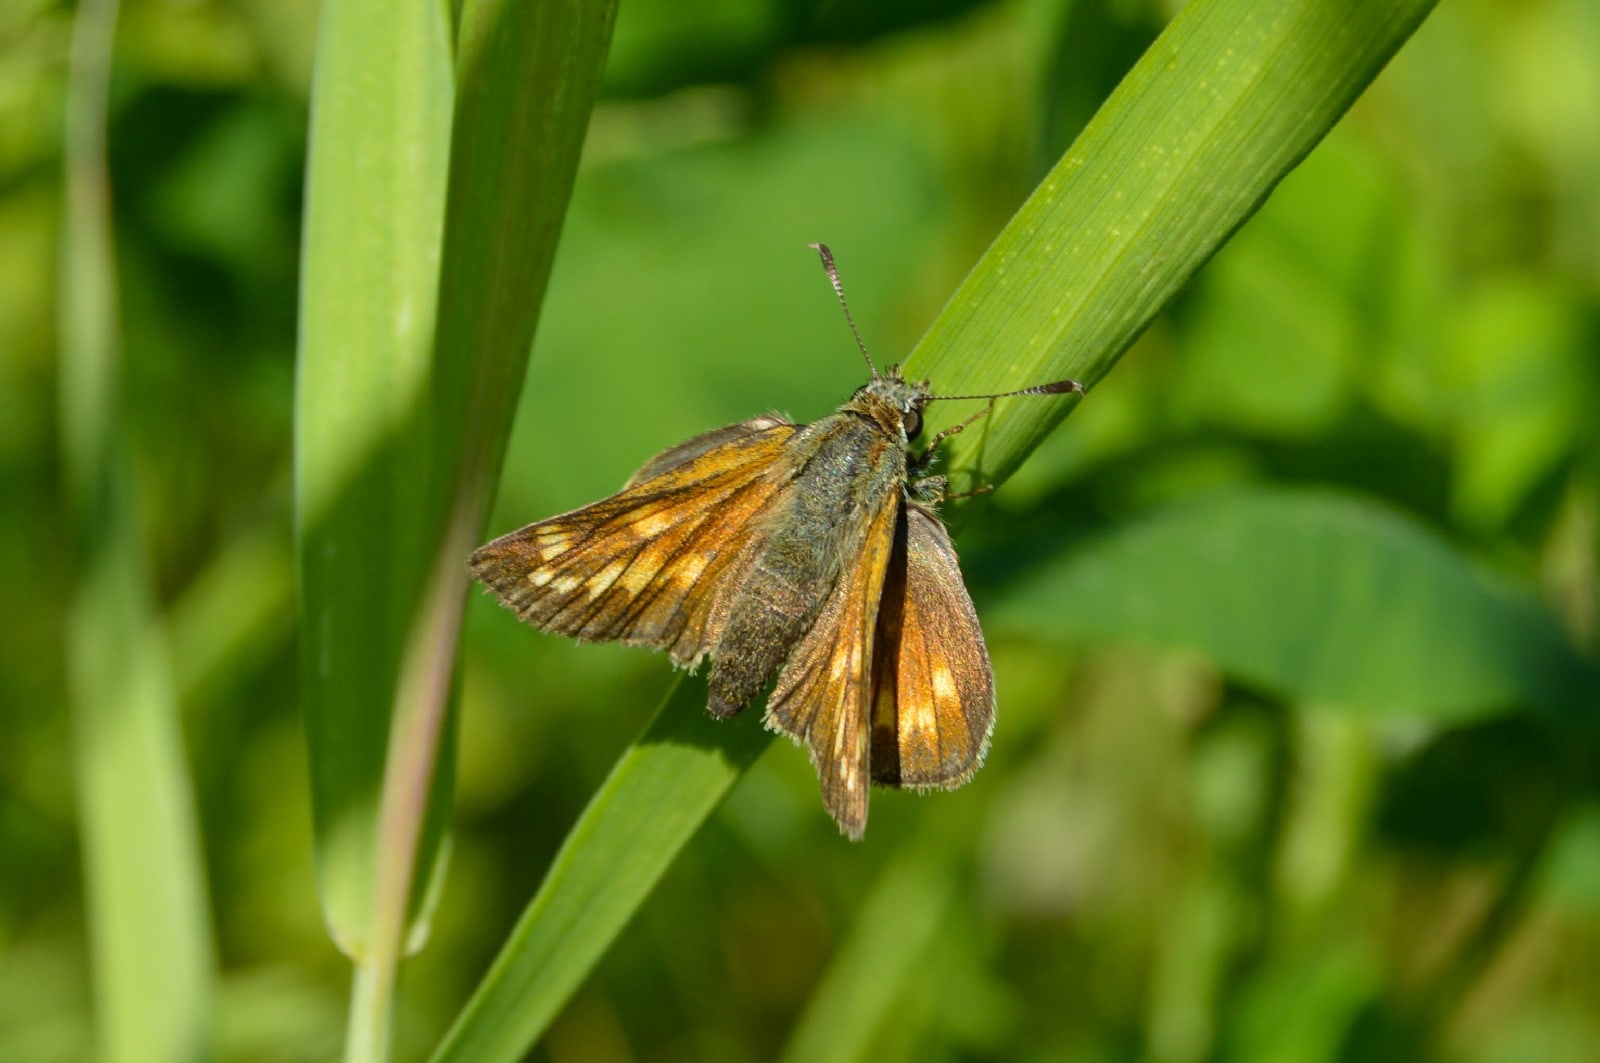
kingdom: Animalia
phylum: Arthropoda
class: Insecta
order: Lepidoptera
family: Hesperiidae
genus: Ochlodes
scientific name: Ochlodes venata
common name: Large skipper
